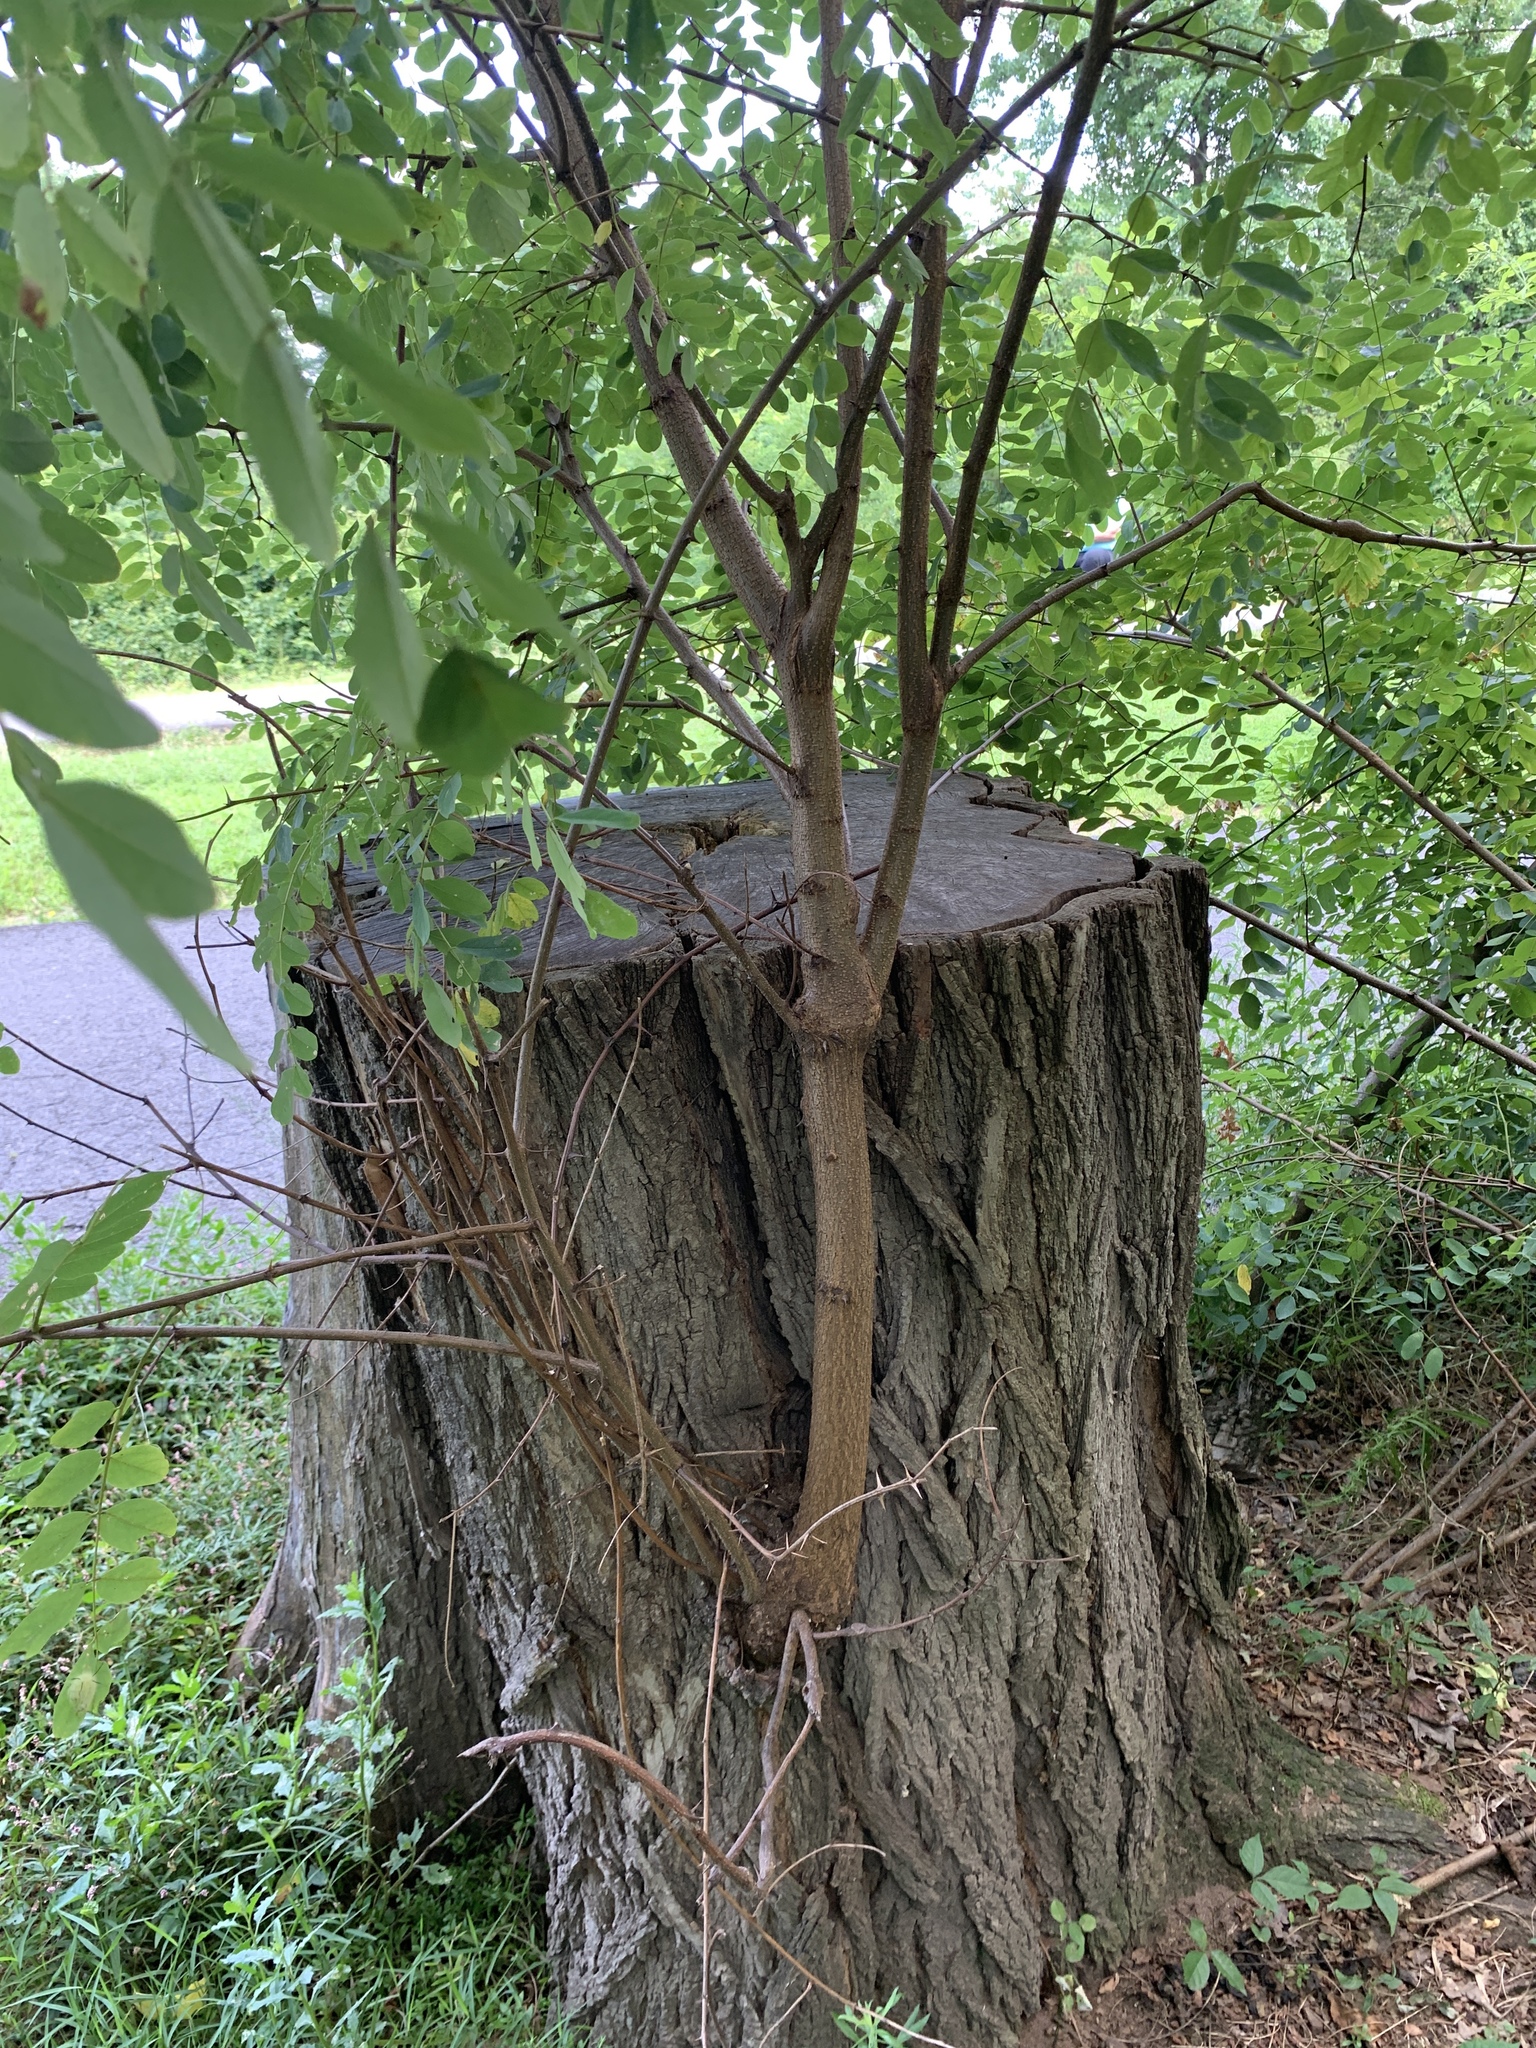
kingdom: Plantae
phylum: Tracheophyta
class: Magnoliopsida
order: Fabales
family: Fabaceae
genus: Robinia
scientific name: Robinia pseudoacacia
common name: Black locust
